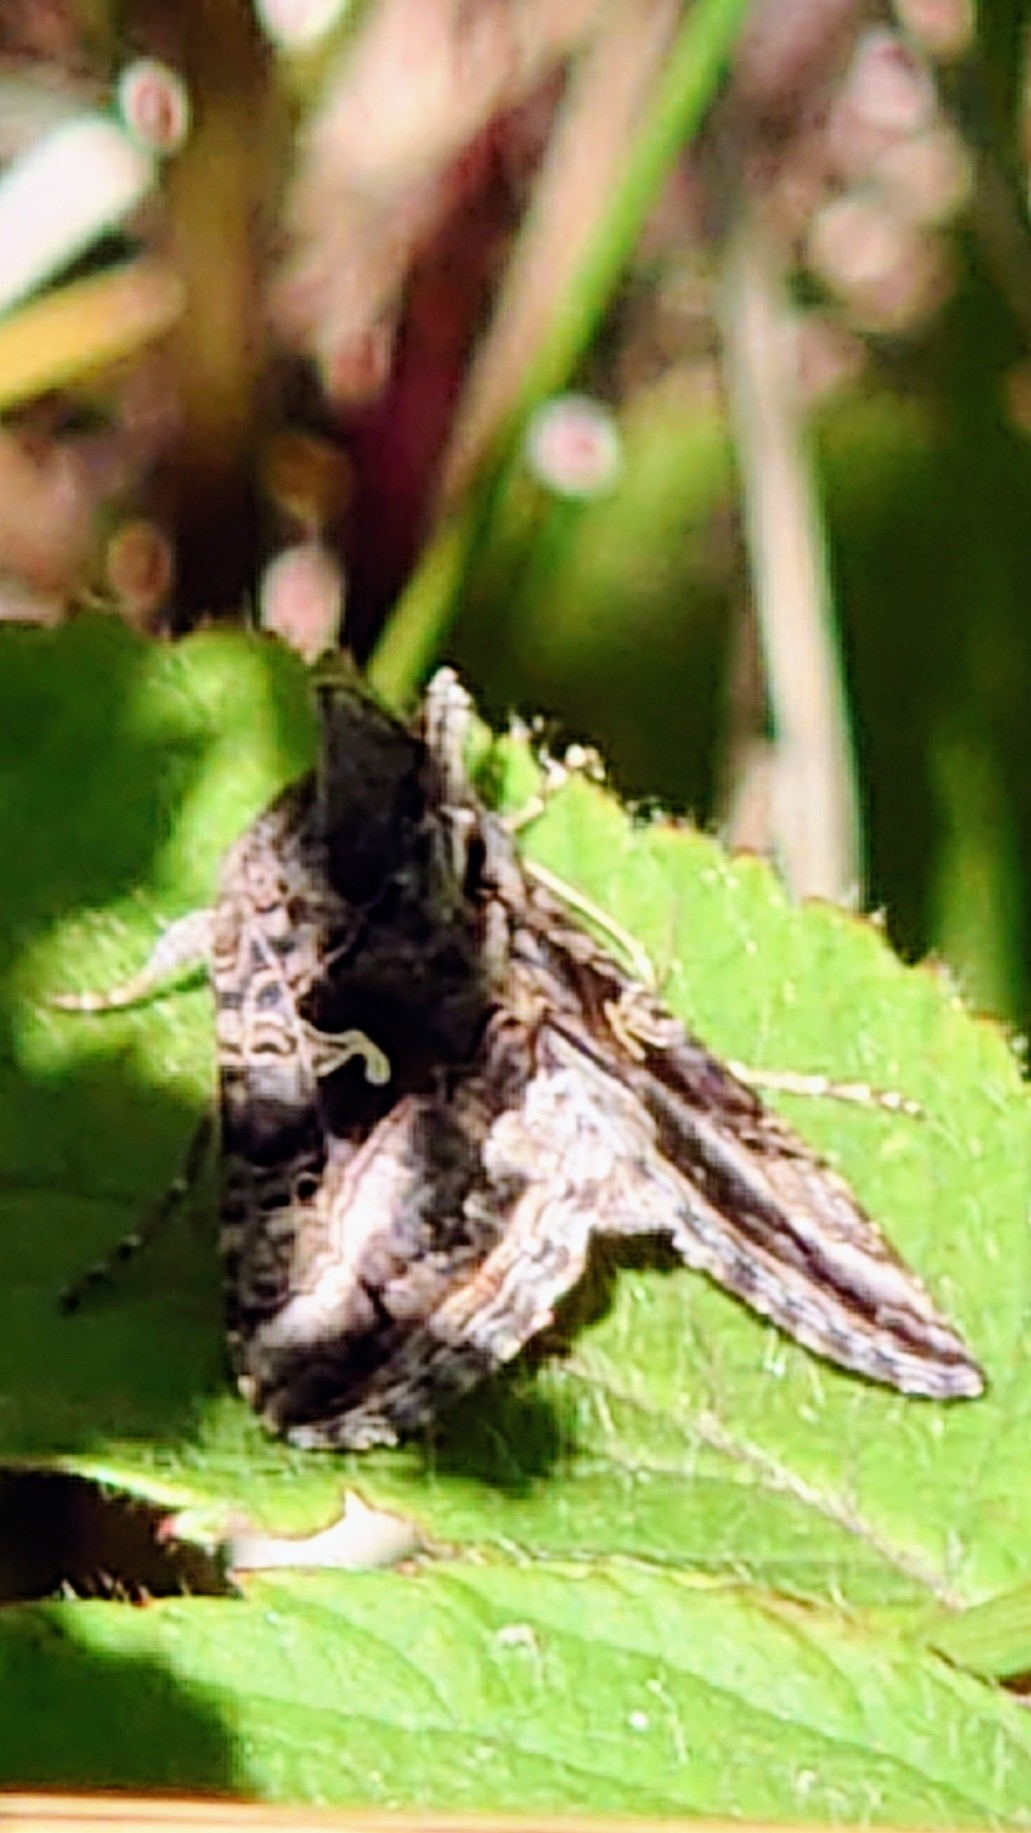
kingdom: Animalia
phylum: Arthropoda
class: Insecta
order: Lepidoptera
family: Noctuidae
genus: Autographa
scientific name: Autographa gamma
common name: Silver y
